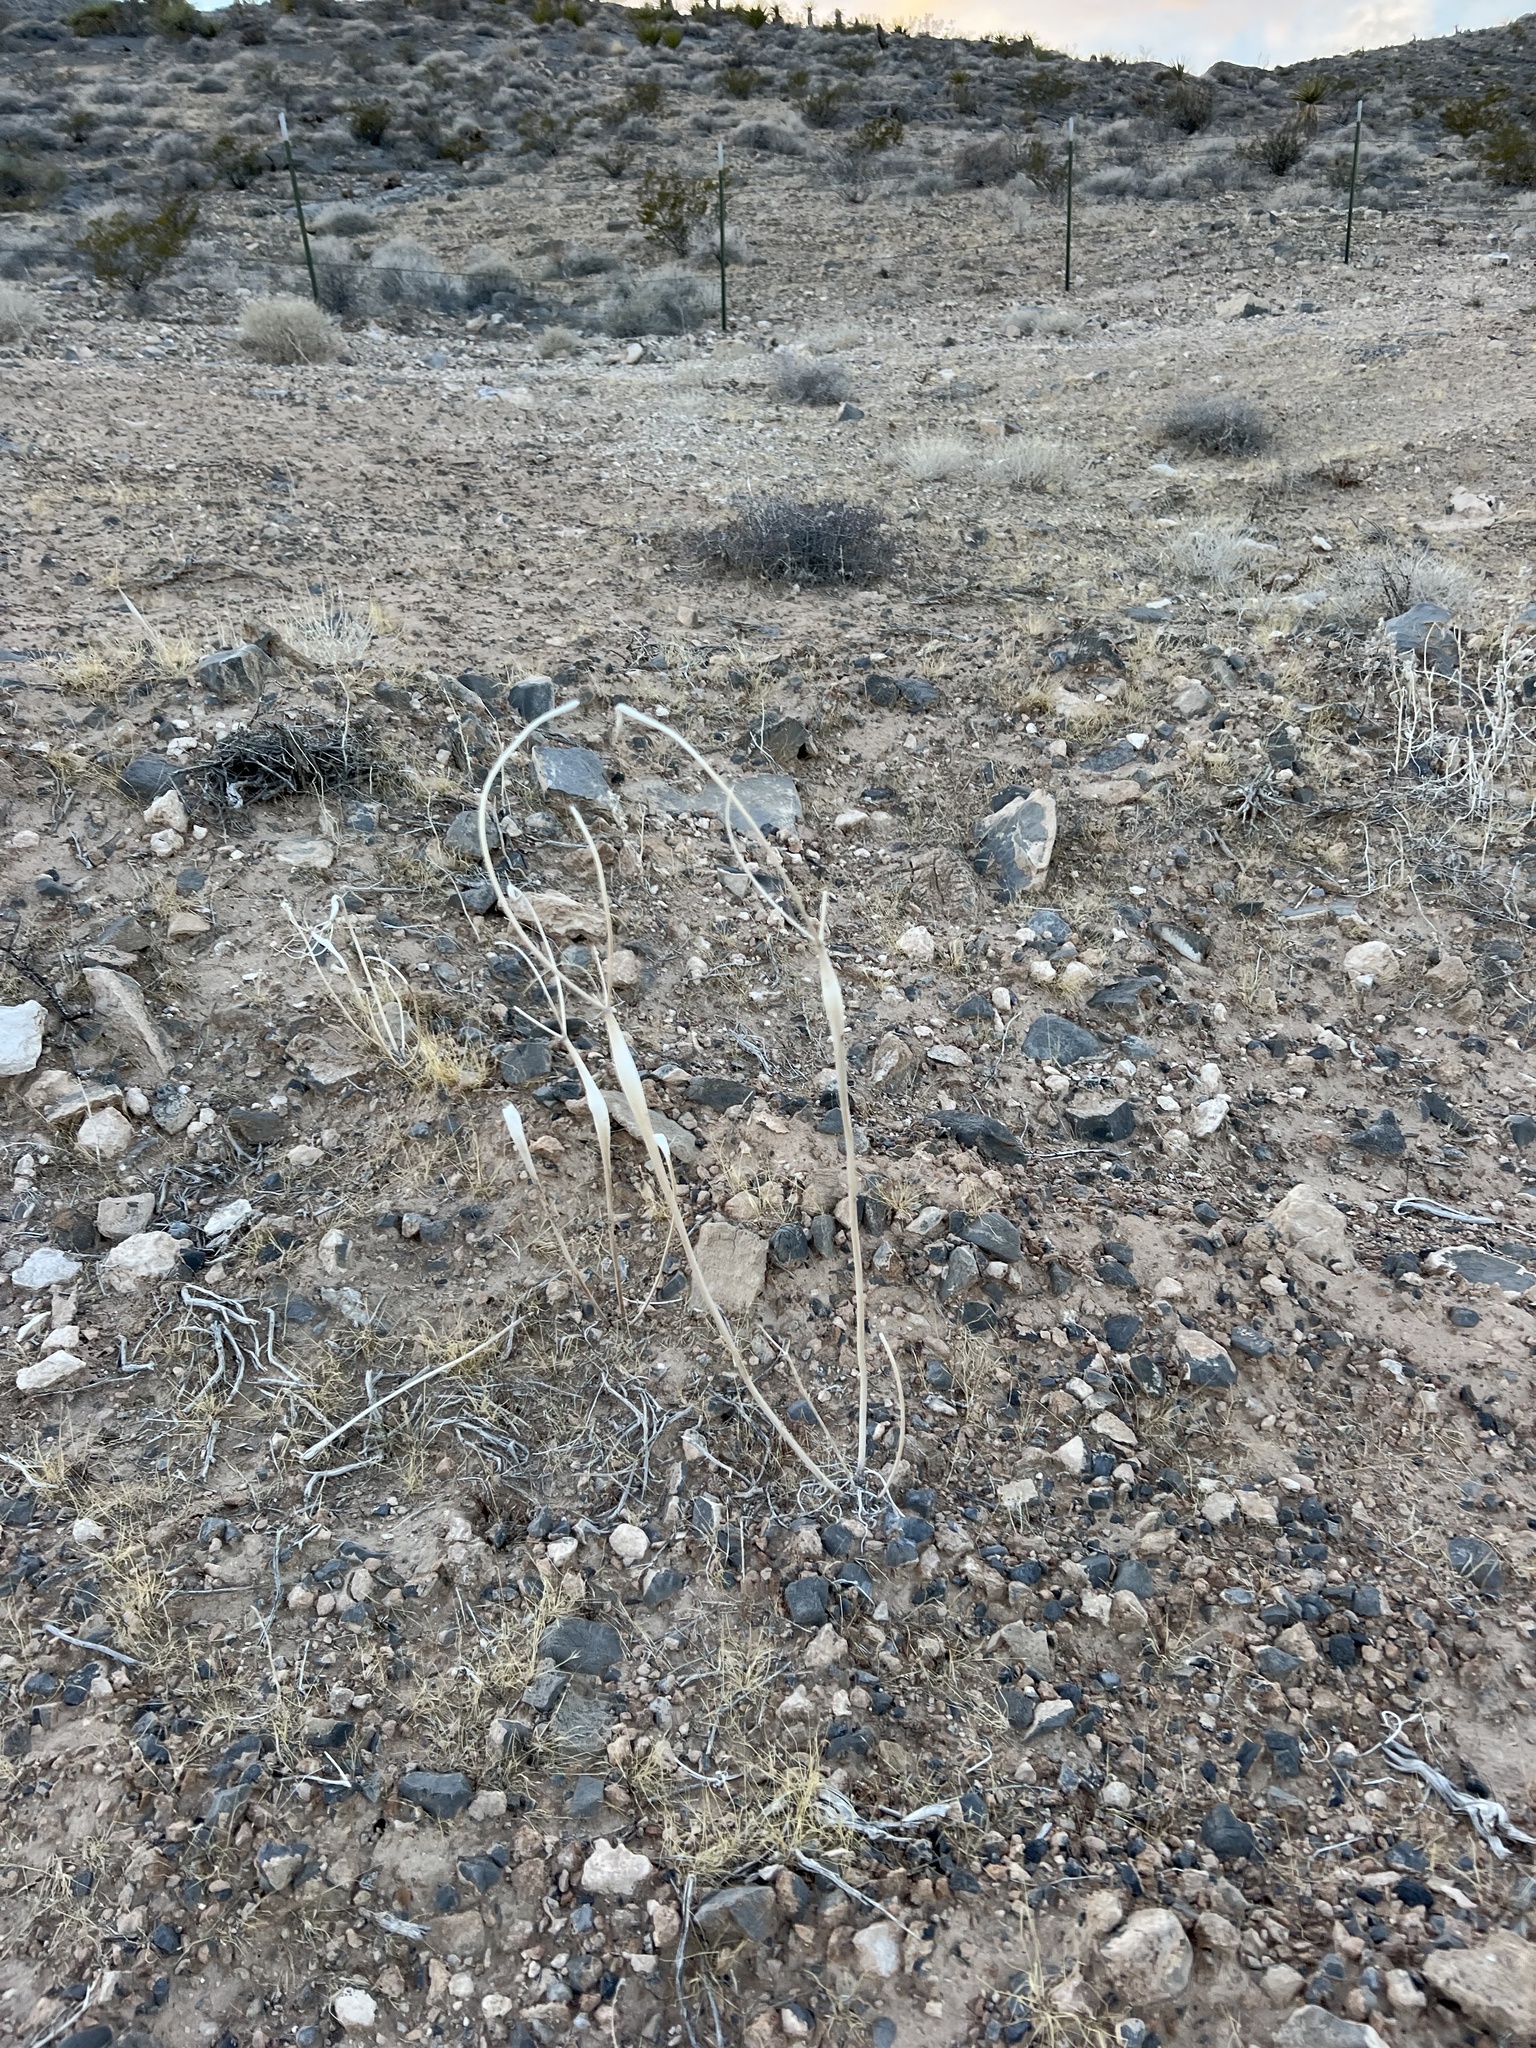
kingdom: Plantae
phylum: Tracheophyta
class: Magnoliopsida
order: Caryophyllales
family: Polygonaceae
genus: Eriogonum
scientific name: Eriogonum inflatum
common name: Desert trumpet
